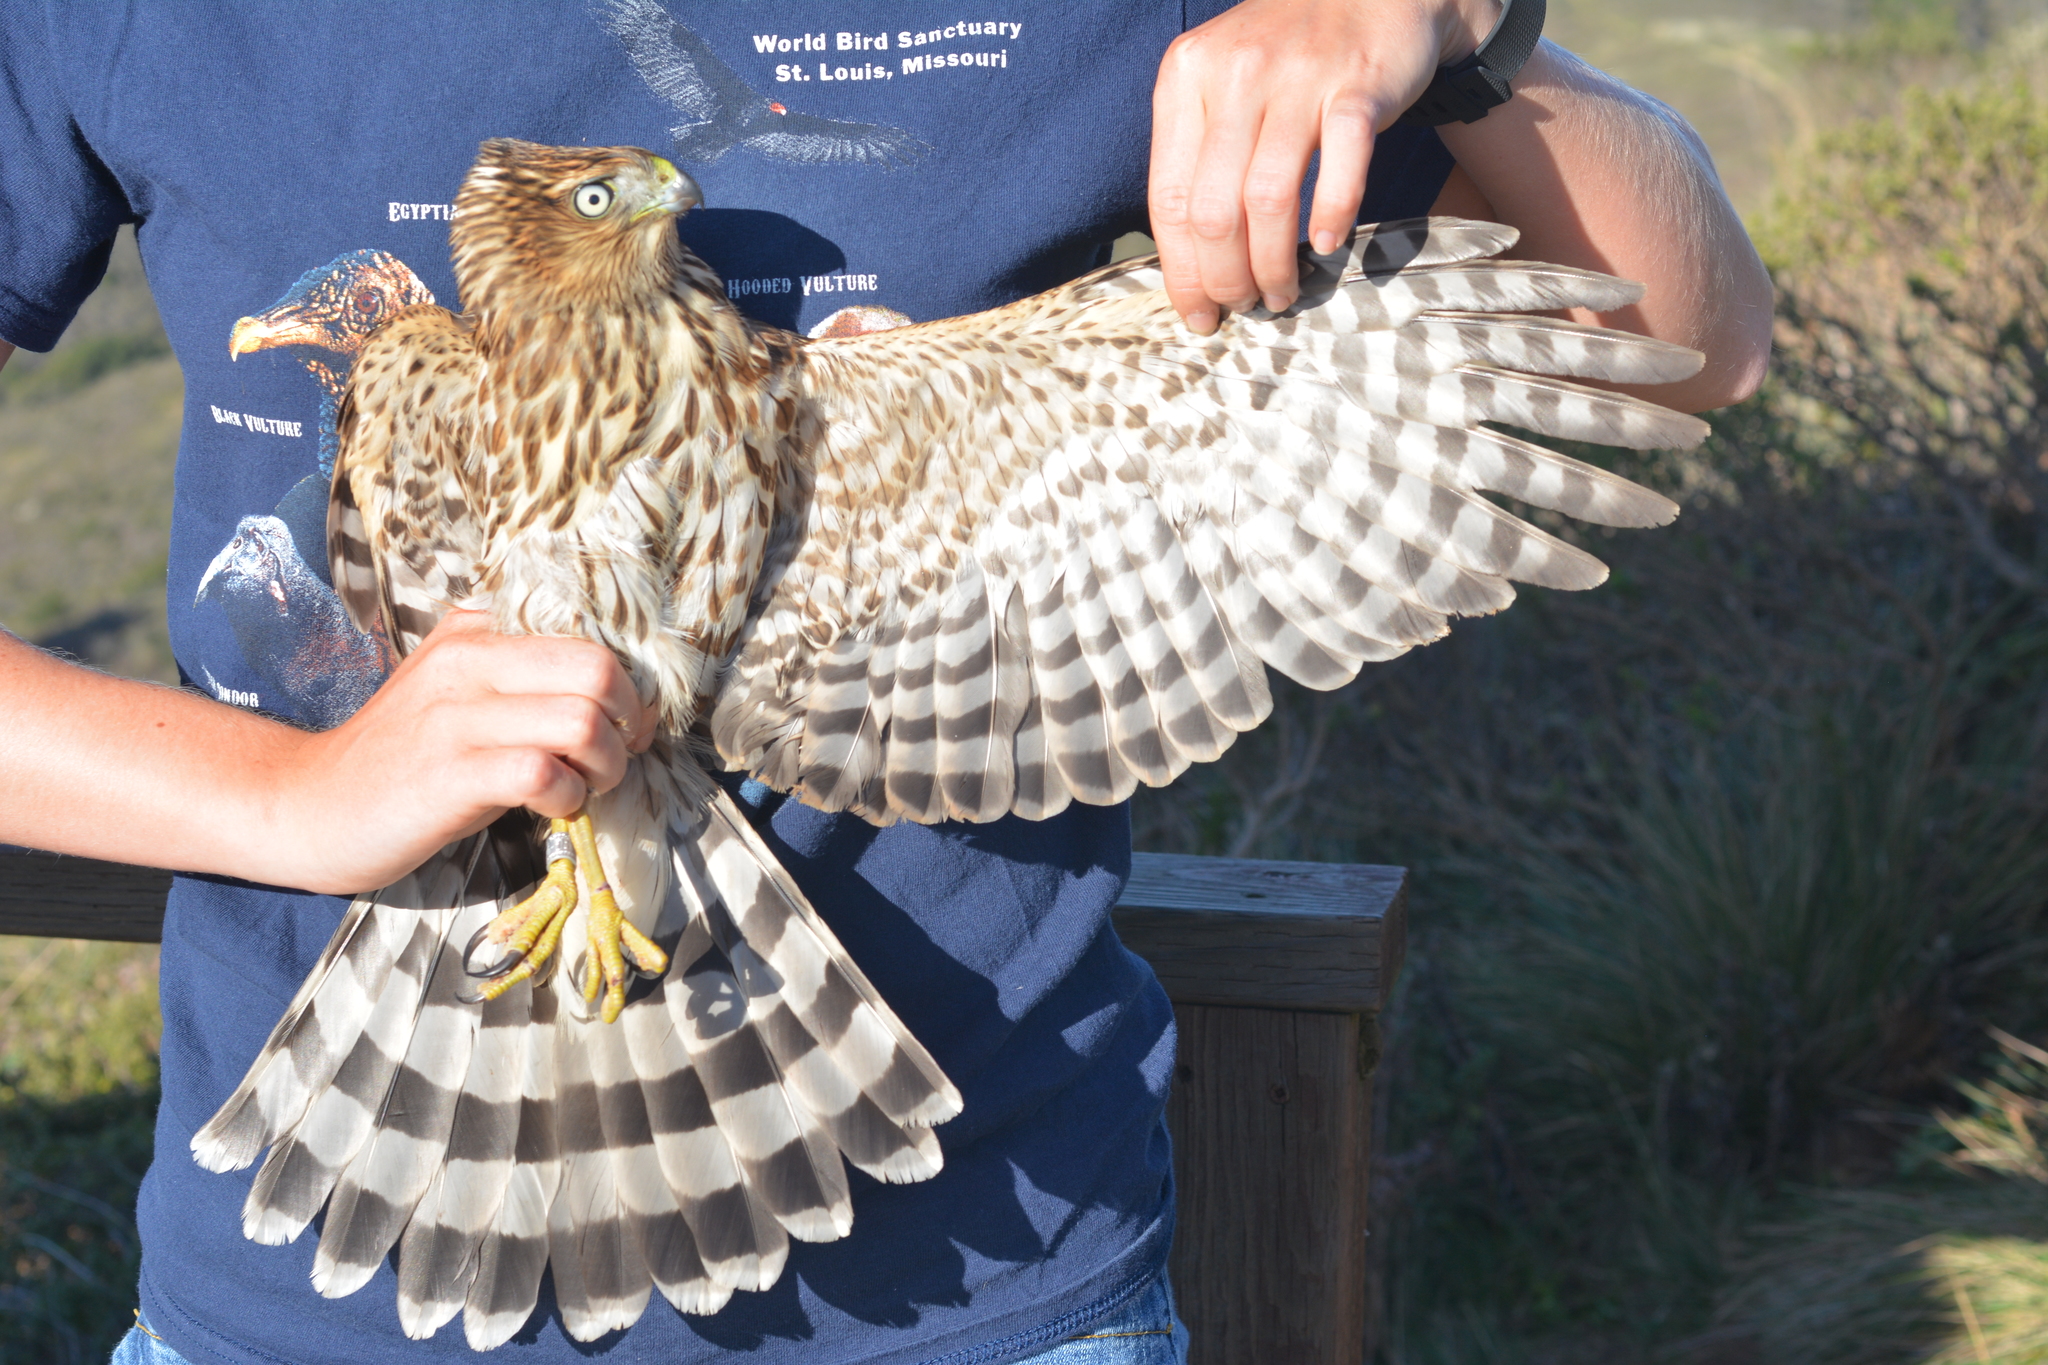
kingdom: Animalia
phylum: Chordata
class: Aves
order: Accipitriformes
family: Accipitridae
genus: Accipiter
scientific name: Accipiter cooperii
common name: Cooper's hawk
